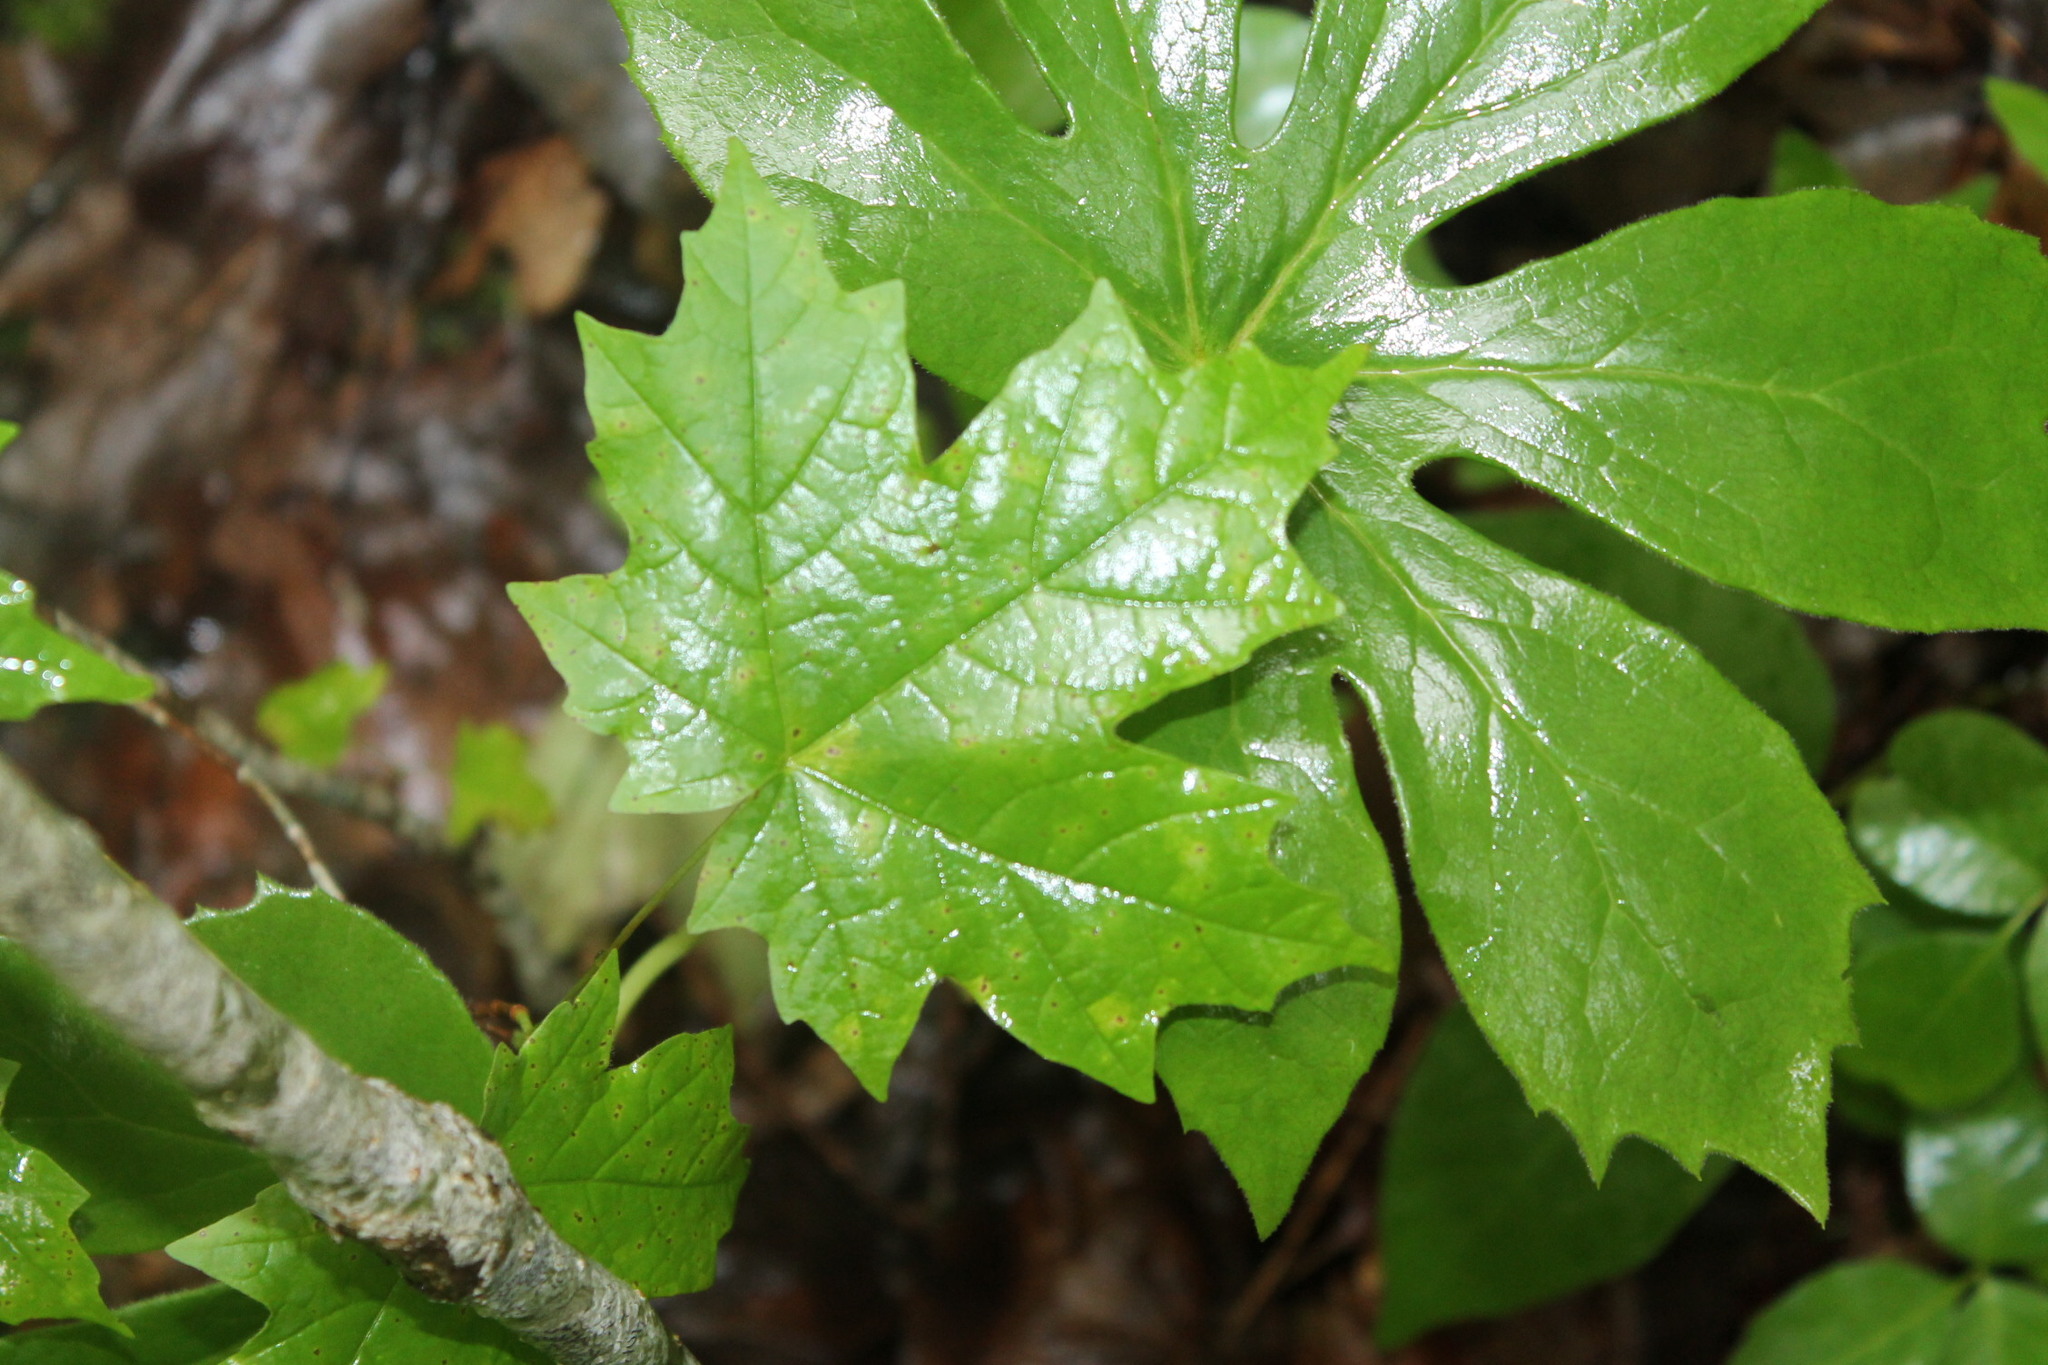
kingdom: Plantae
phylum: Tracheophyta
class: Magnoliopsida
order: Sapindales
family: Sapindaceae
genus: Acer
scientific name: Acer saccharum
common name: Sugar maple
